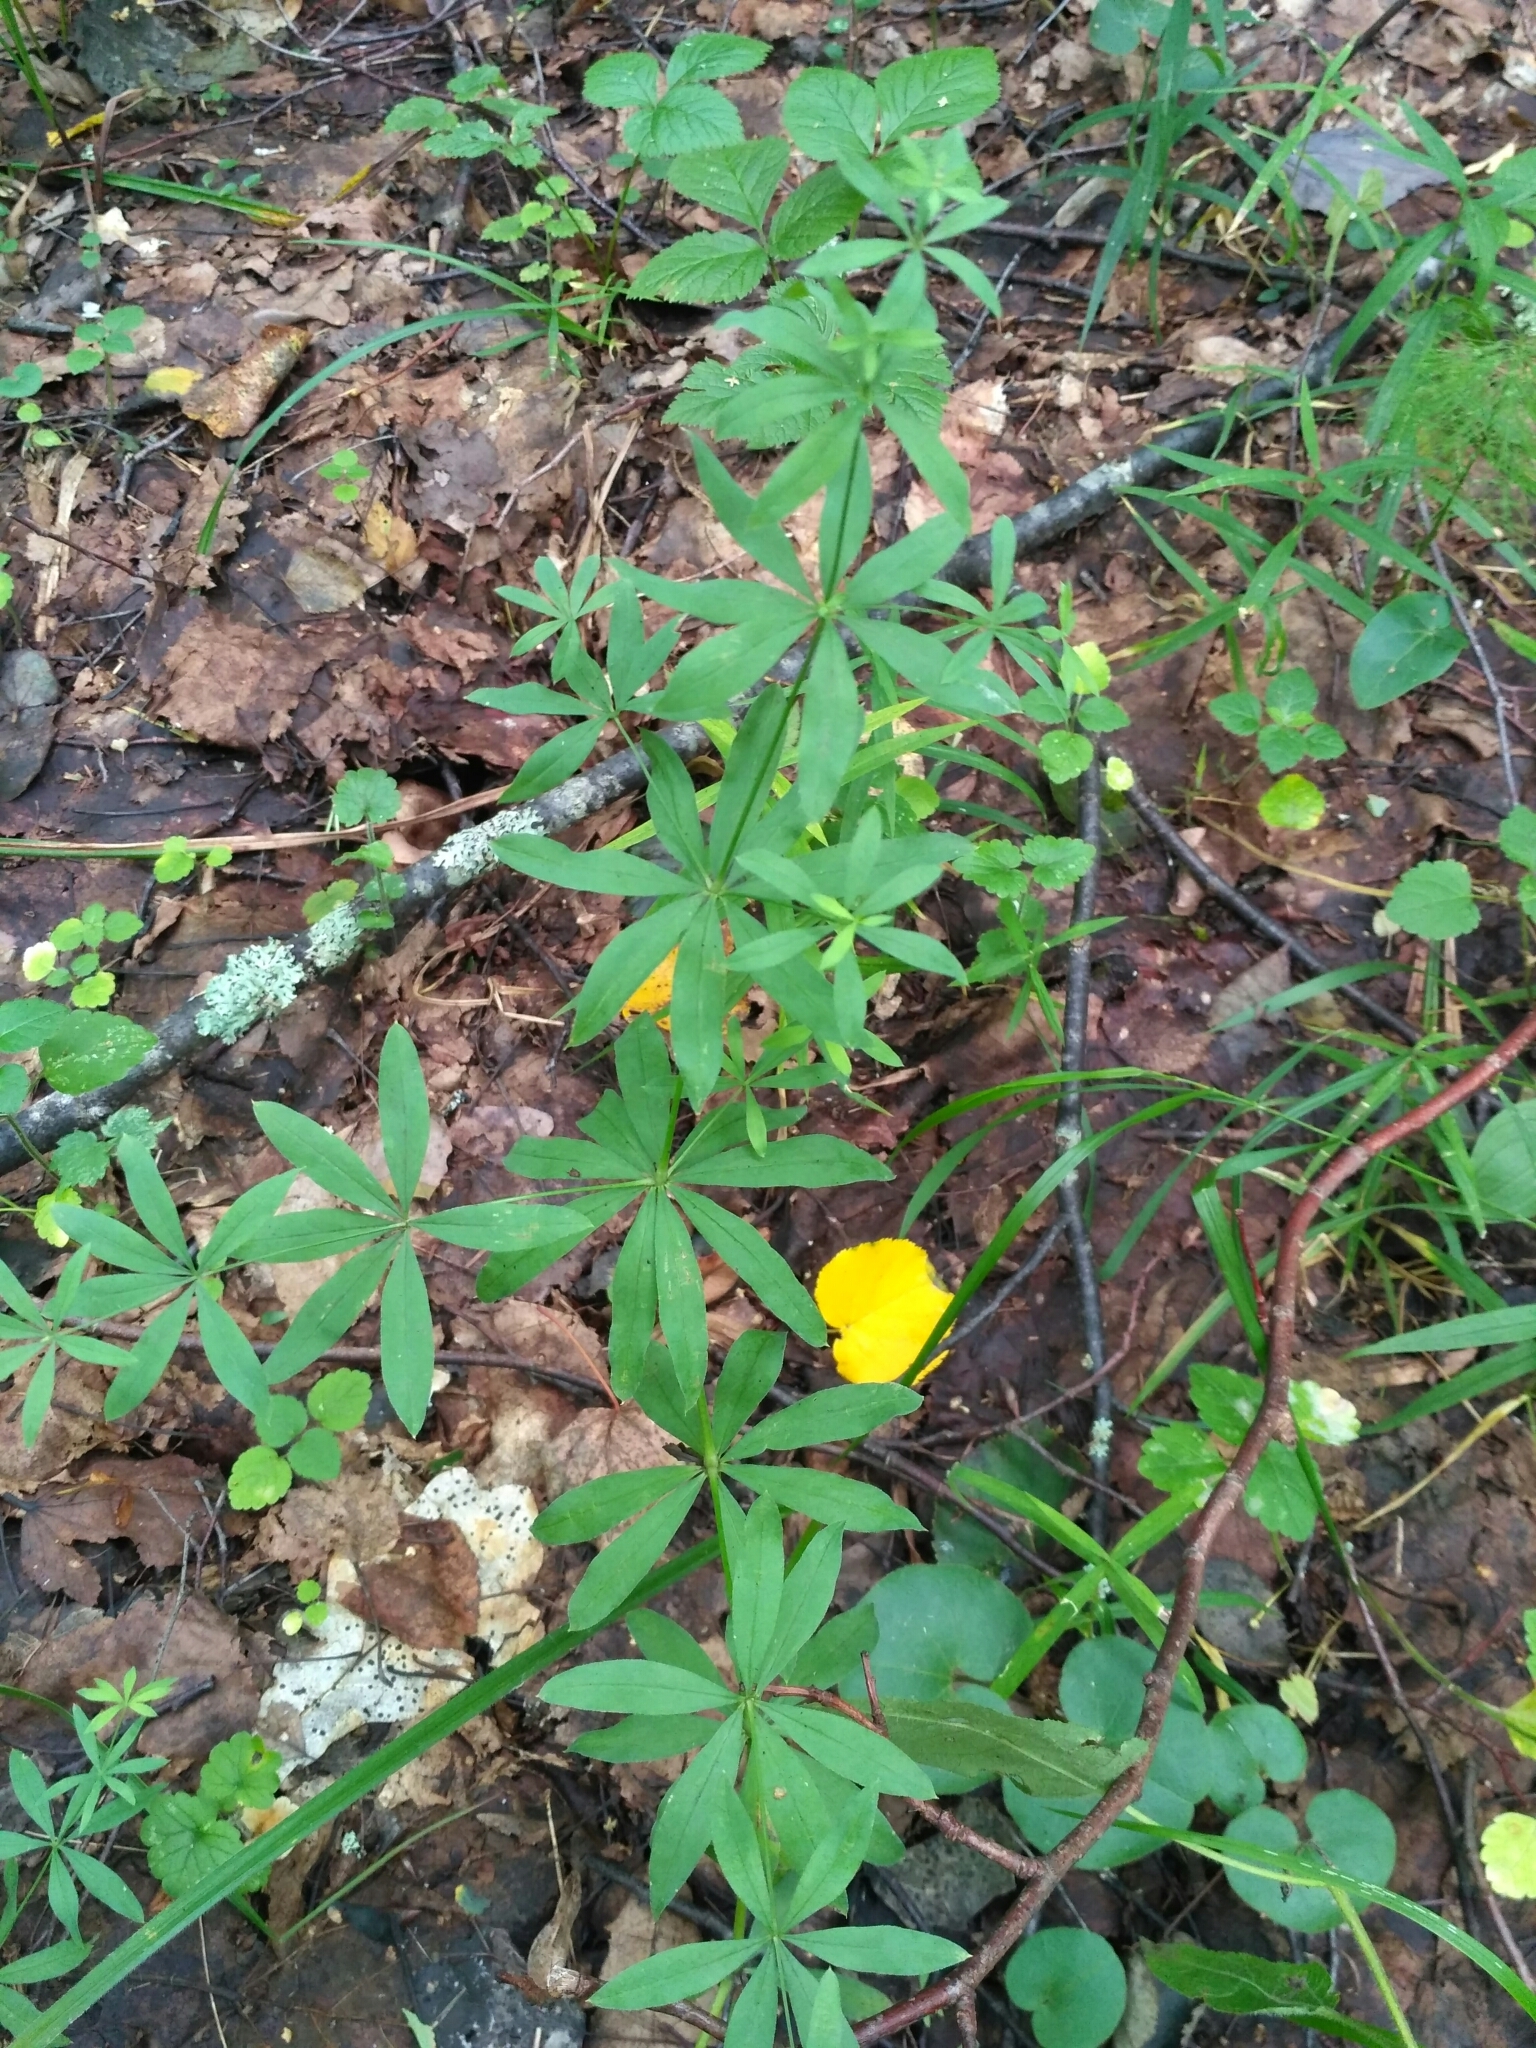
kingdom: Plantae
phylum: Tracheophyta
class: Magnoliopsida
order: Gentianales
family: Rubiaceae
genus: Galium
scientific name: Galium intermedium
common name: Bedstraw
